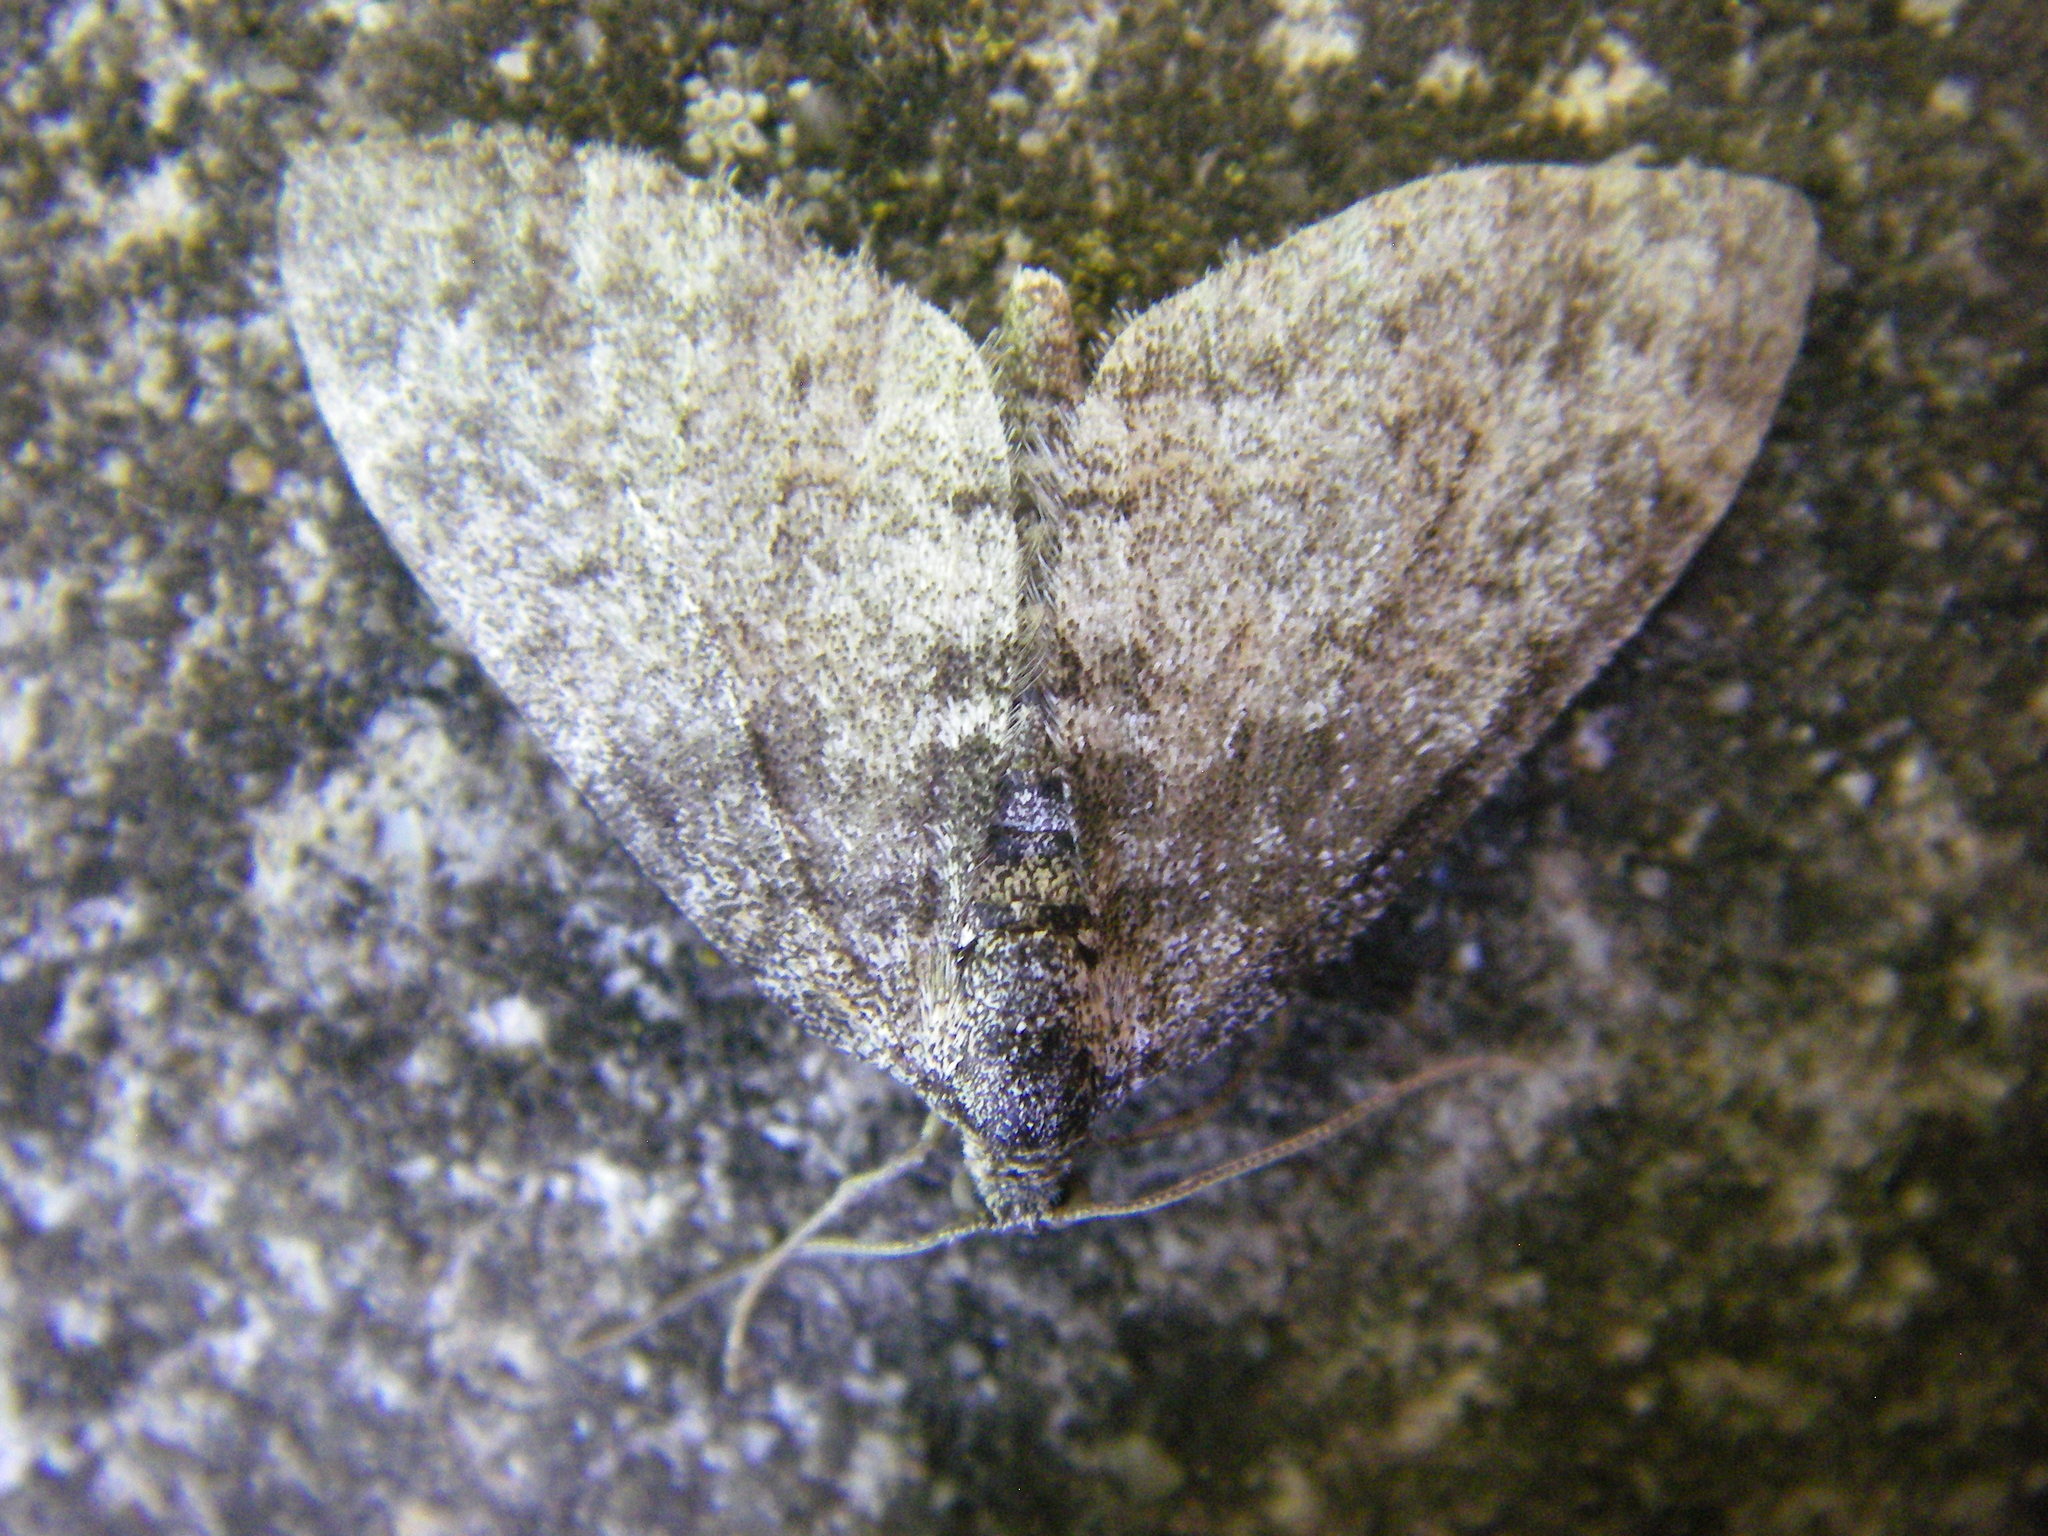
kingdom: Animalia
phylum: Arthropoda
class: Insecta
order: Lepidoptera
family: Geometridae
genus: Lobophora
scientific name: Lobophora halterata
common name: Seraphim
